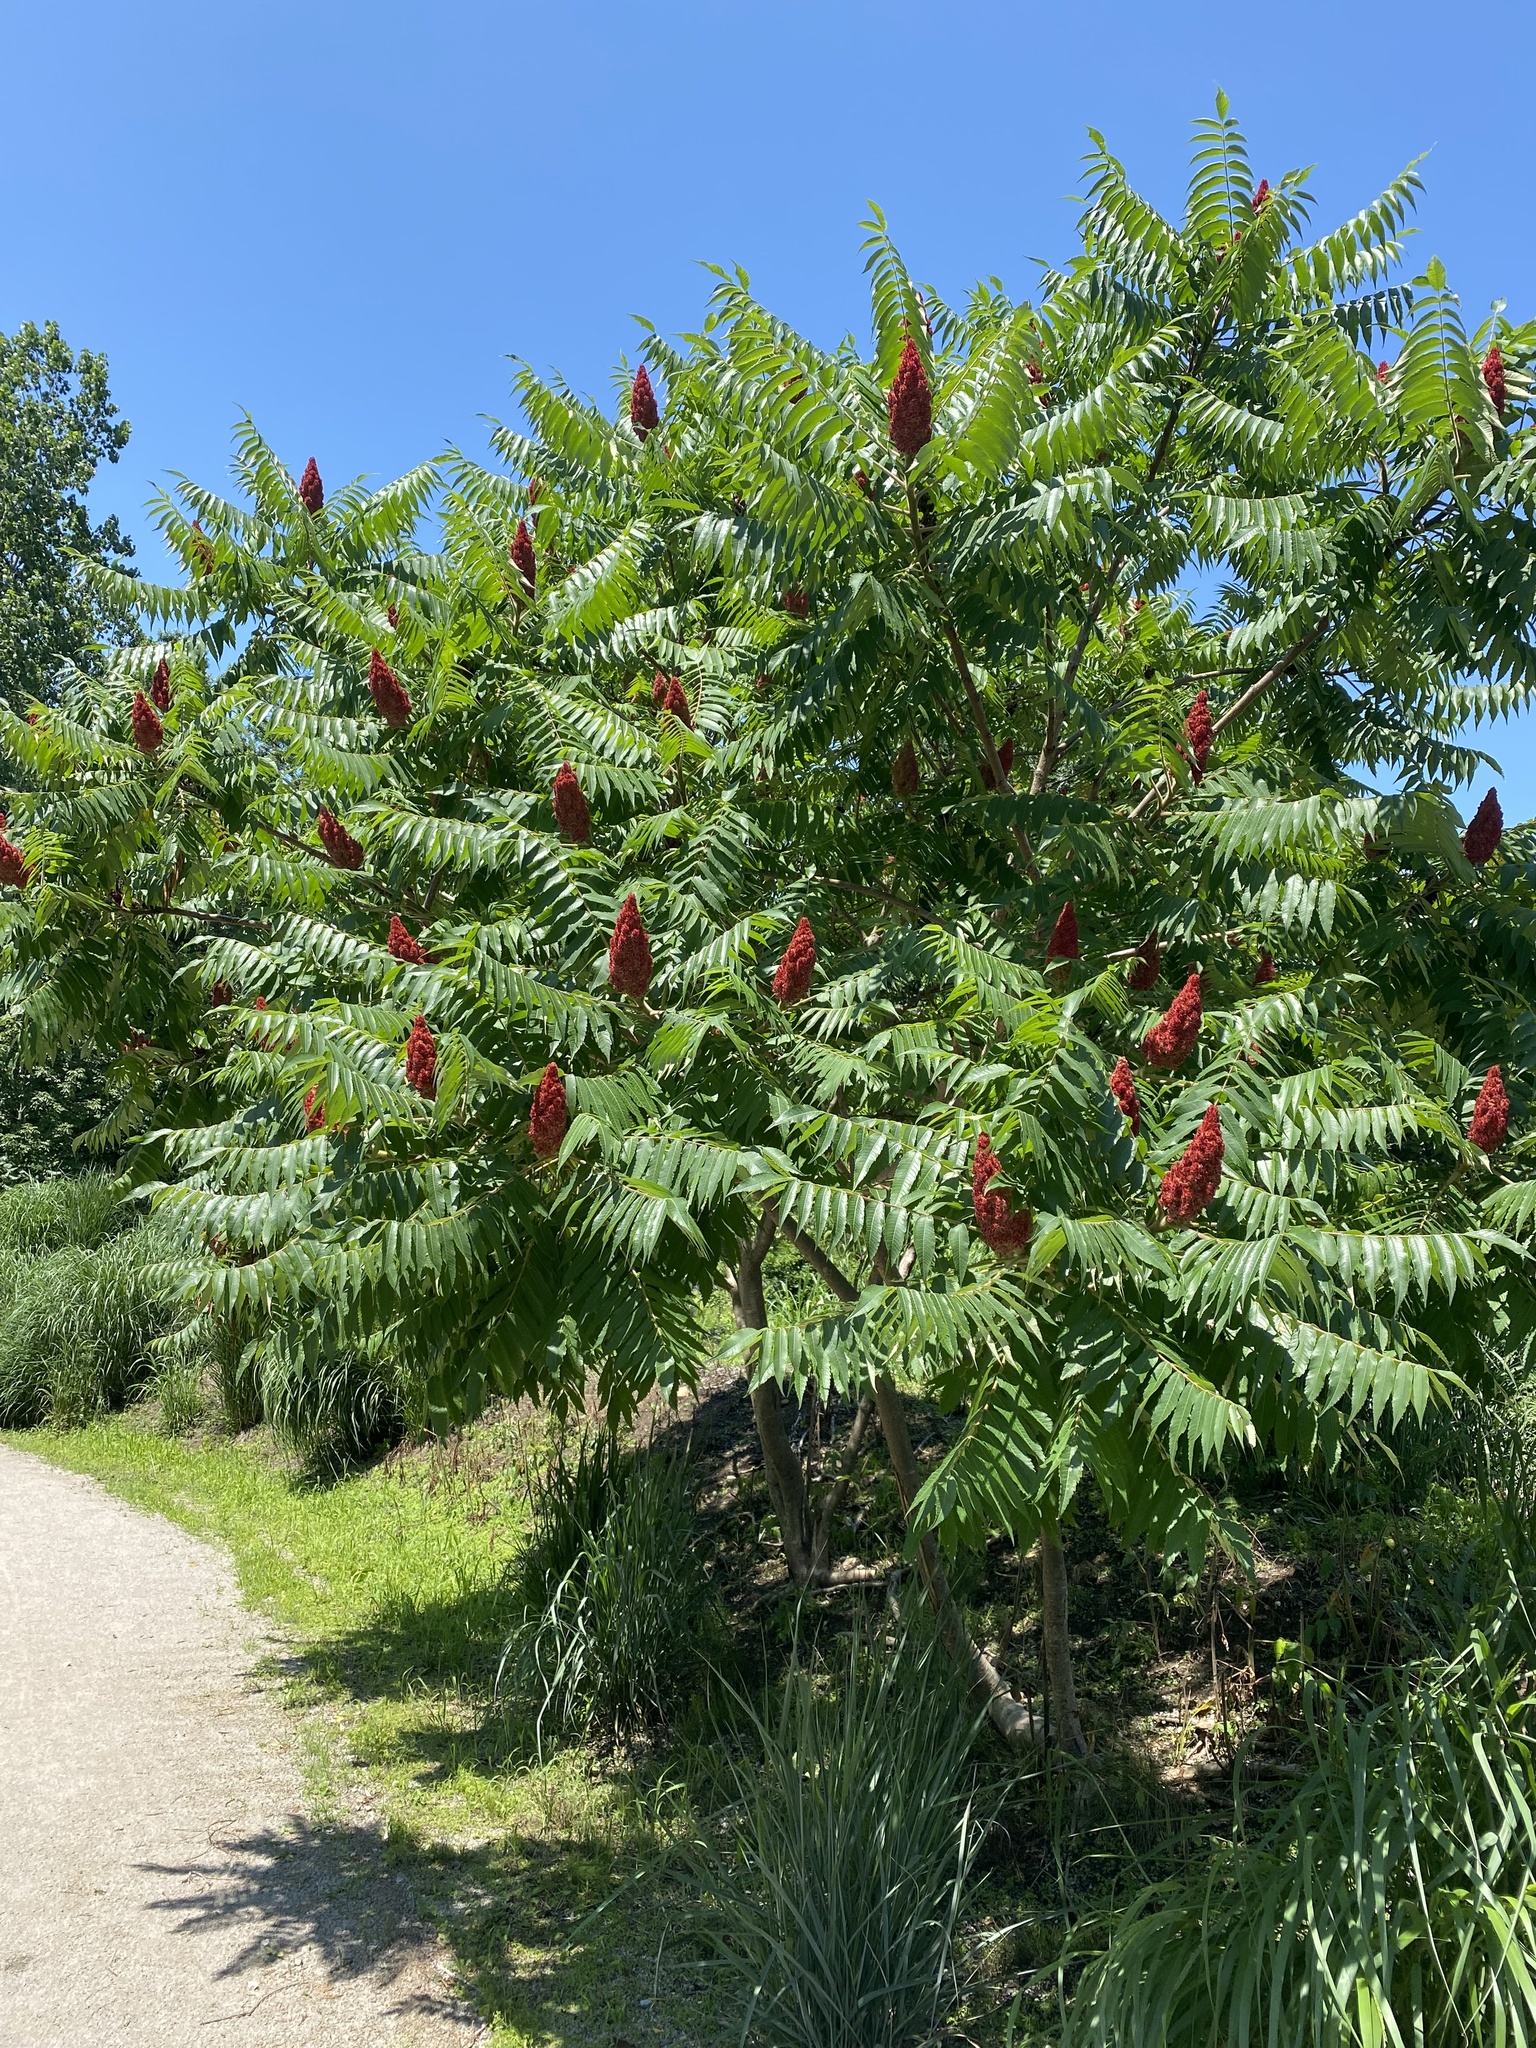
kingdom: Plantae
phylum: Tracheophyta
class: Magnoliopsida
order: Sapindales
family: Anacardiaceae
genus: Rhus
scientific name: Rhus typhina
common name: Staghorn sumac
